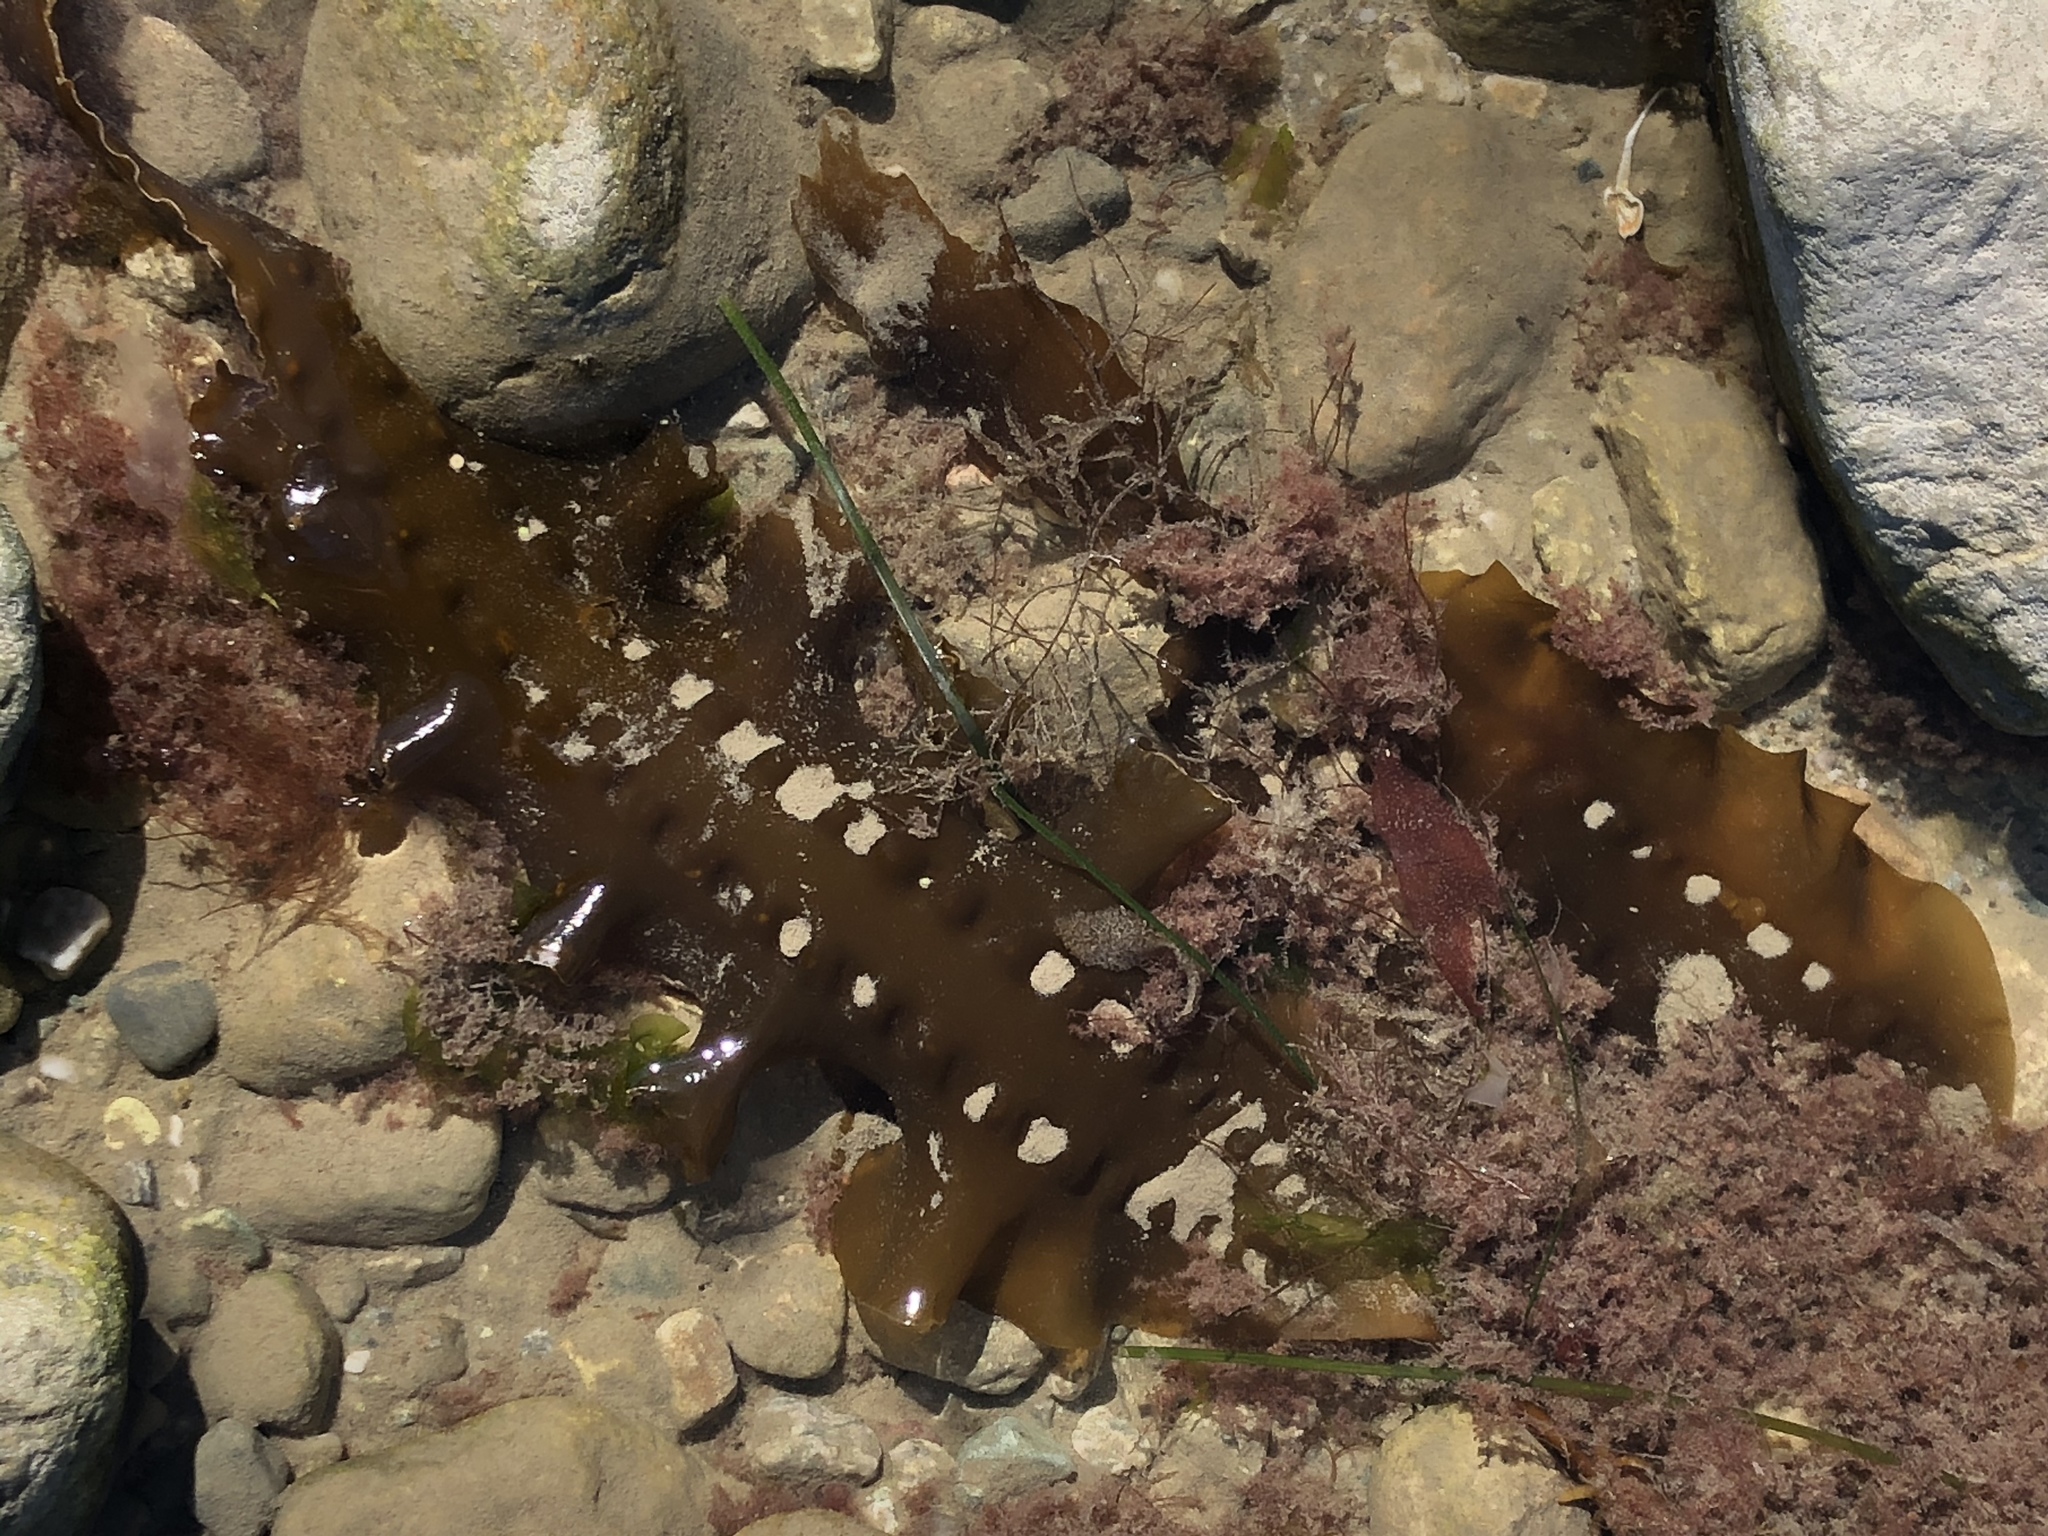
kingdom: Chromista
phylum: Ochrophyta
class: Phaeophyceae
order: Laminariales
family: Laminariaceae
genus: Saccharina
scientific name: Saccharina latissima
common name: Poor man's weather glass
